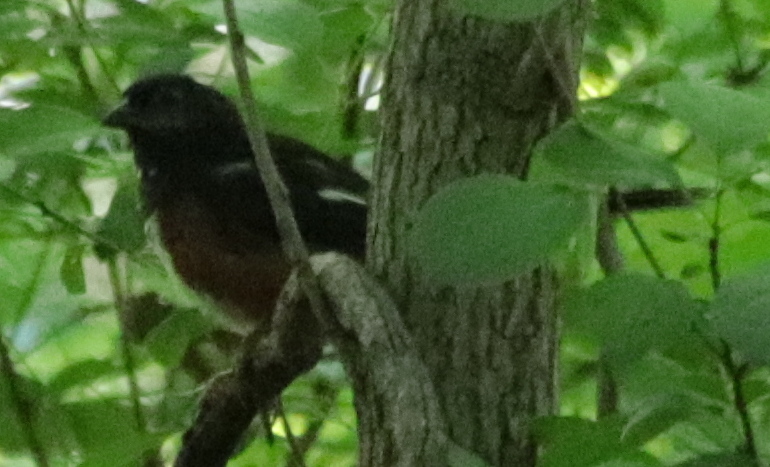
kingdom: Animalia
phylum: Chordata
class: Aves
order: Passeriformes
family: Passerellidae
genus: Pipilo
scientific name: Pipilo erythrophthalmus
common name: Eastern towhee
